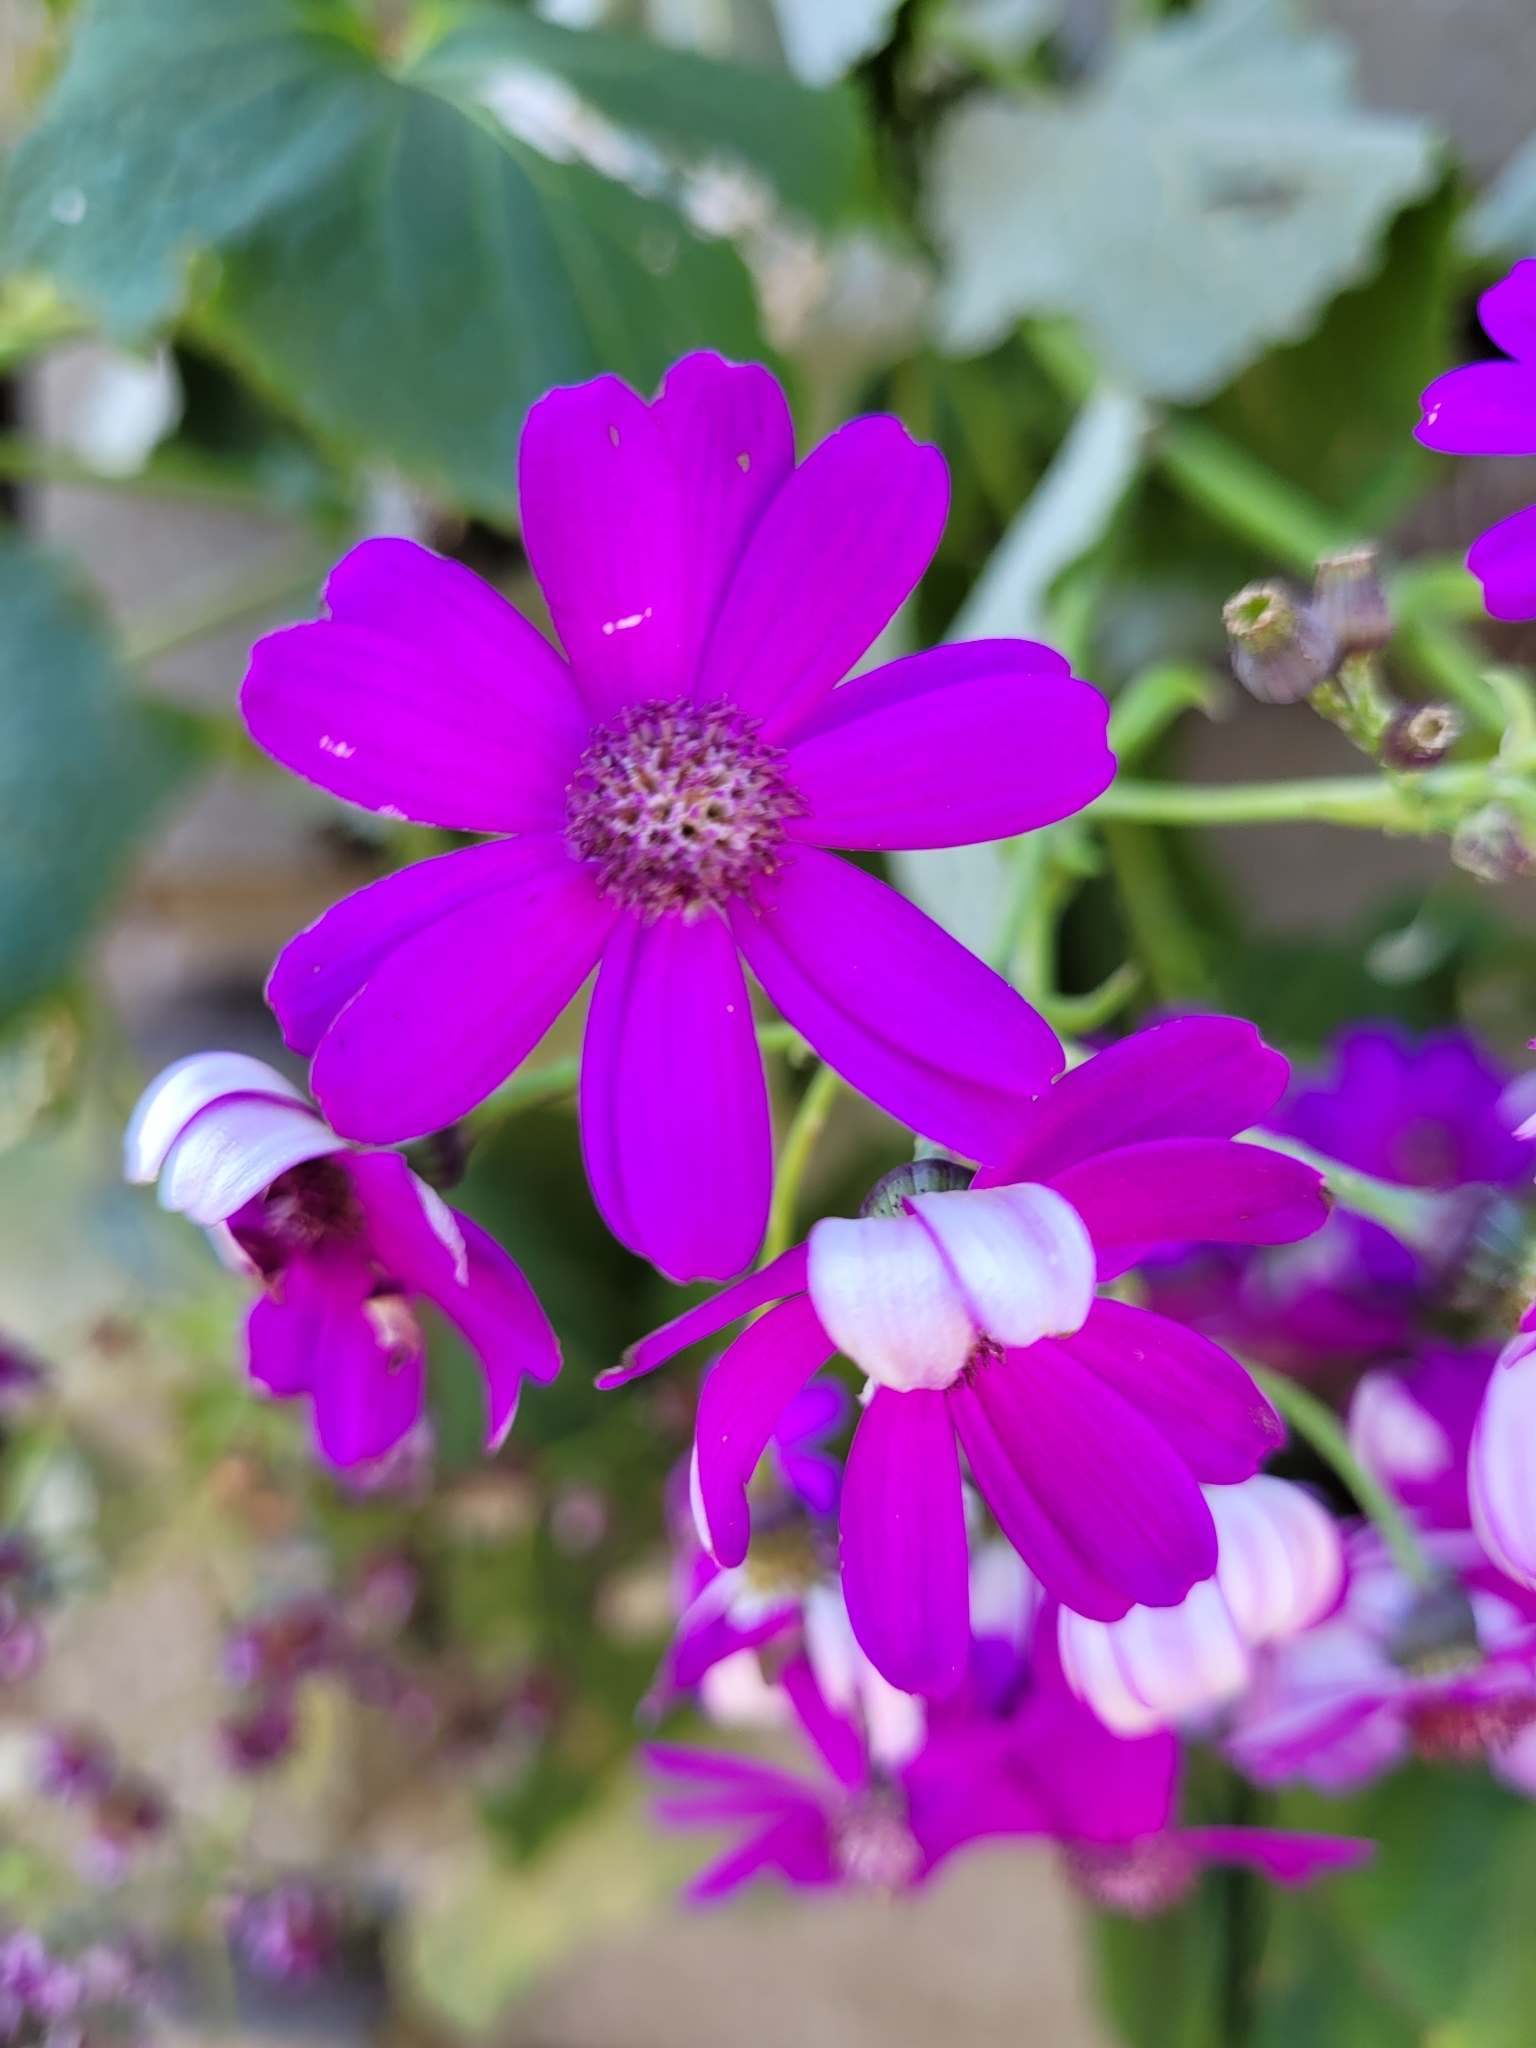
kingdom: Plantae
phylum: Tracheophyta
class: Magnoliopsida
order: Asterales
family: Asteraceae
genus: Pericallis
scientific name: Pericallis hybrida
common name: Cineraria
